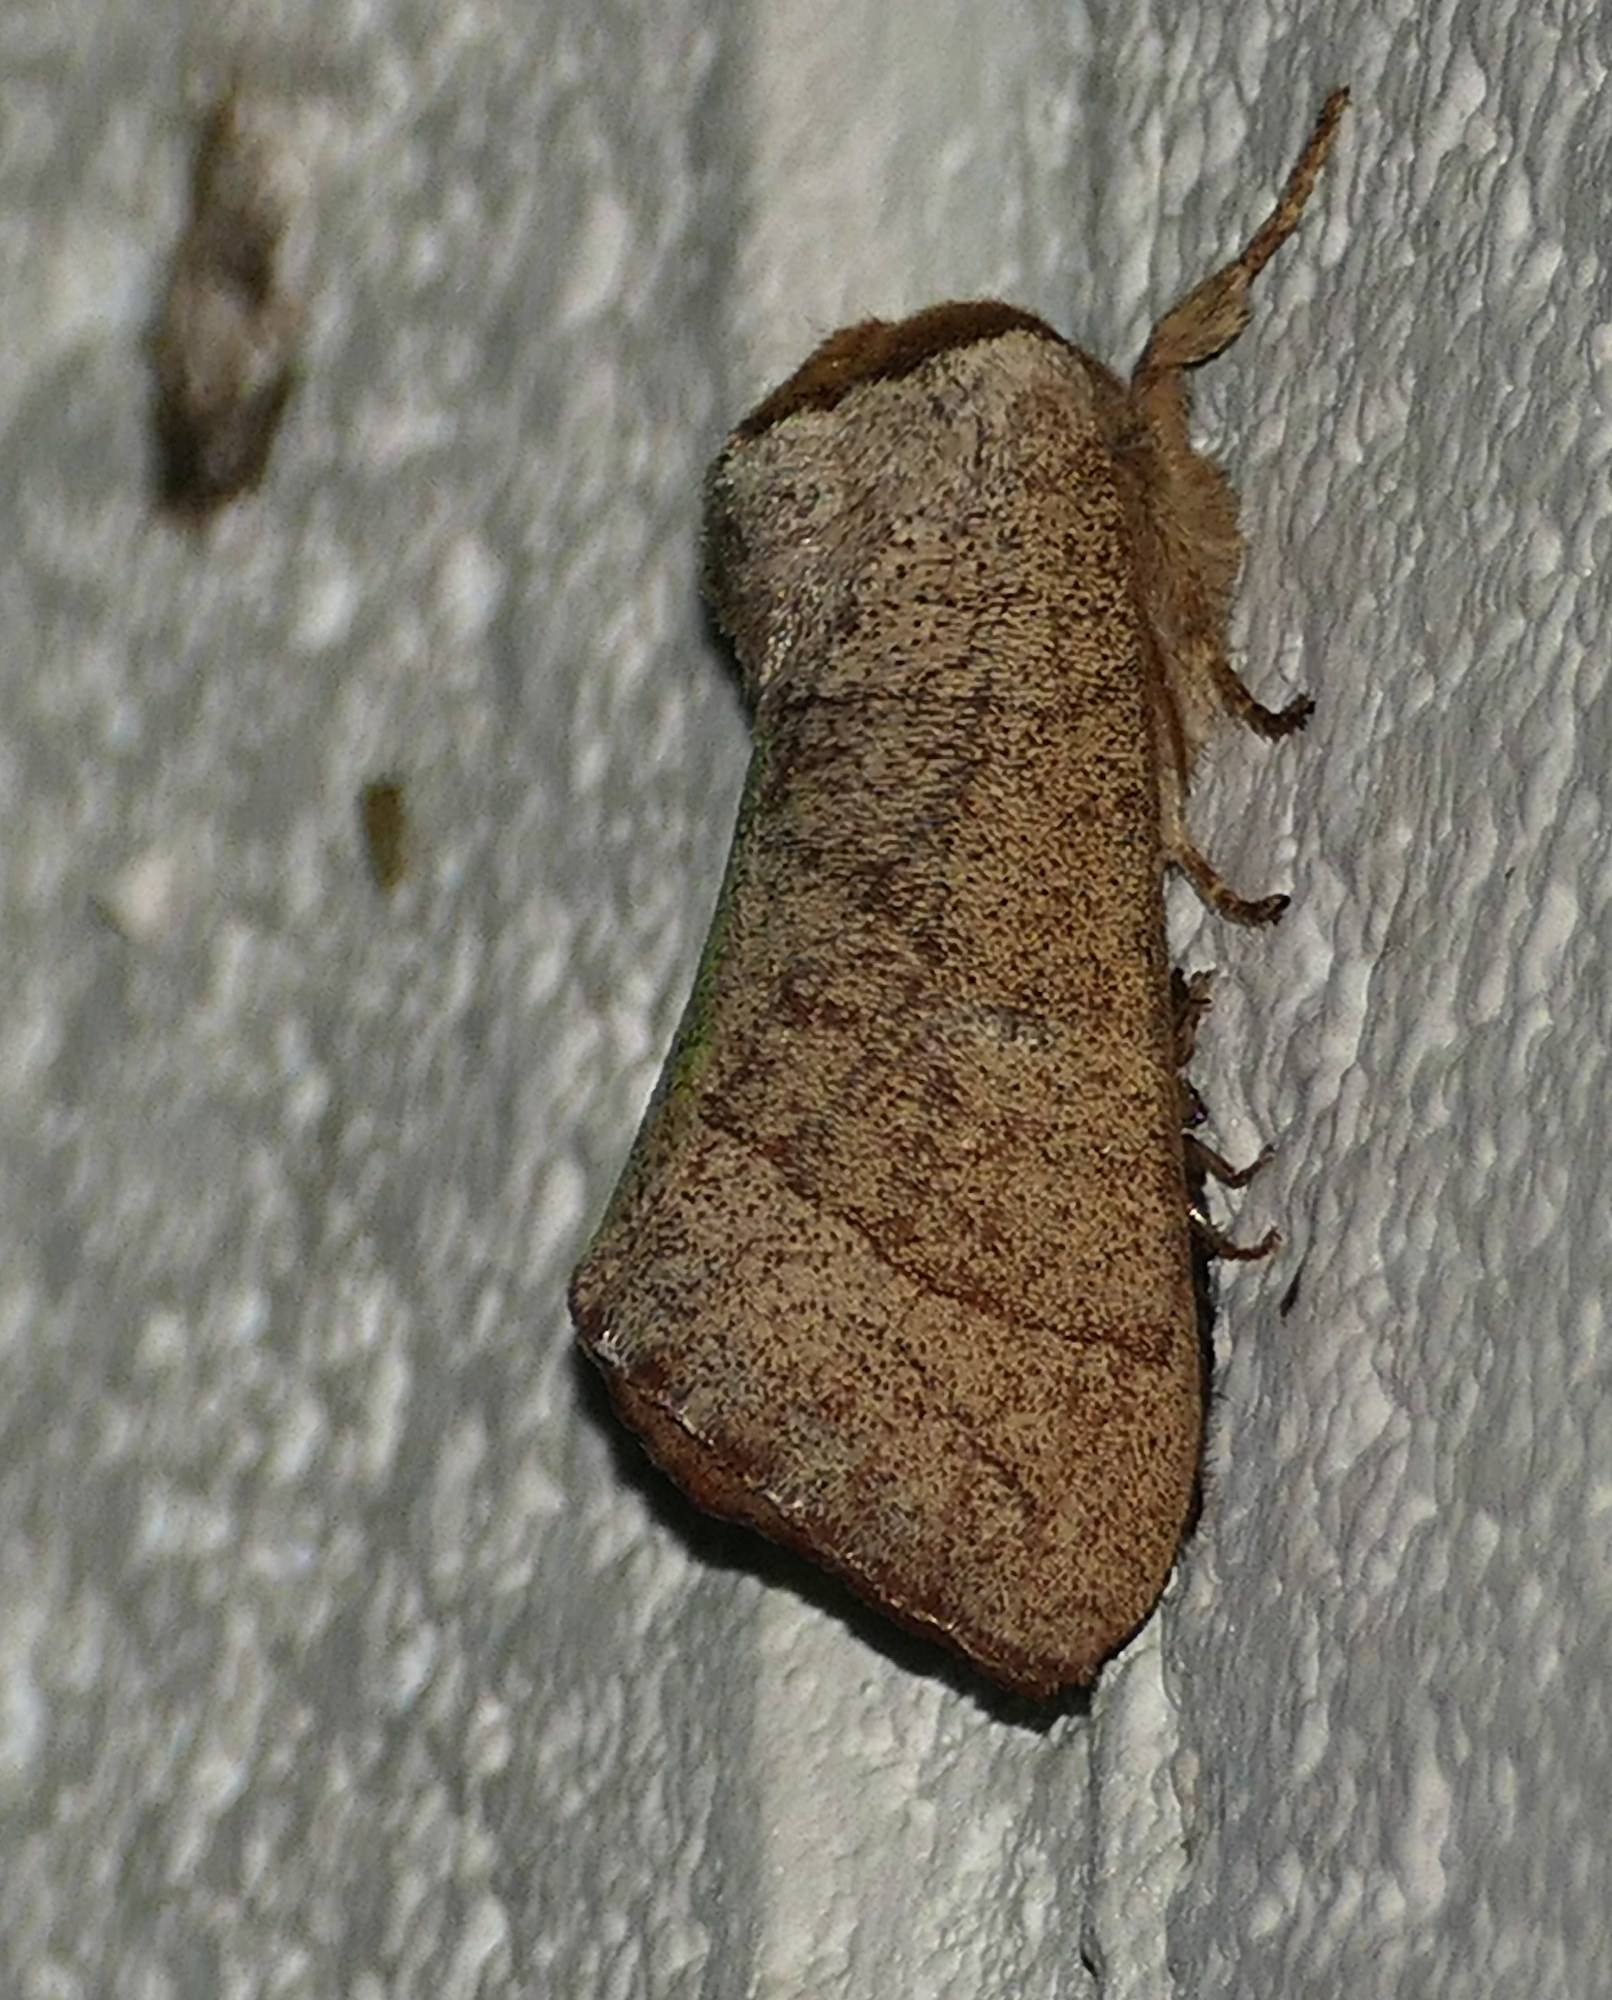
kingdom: Animalia
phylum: Arthropoda
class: Insecta
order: Lepidoptera
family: Notodontidae
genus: Datana
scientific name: Datana diffidens
